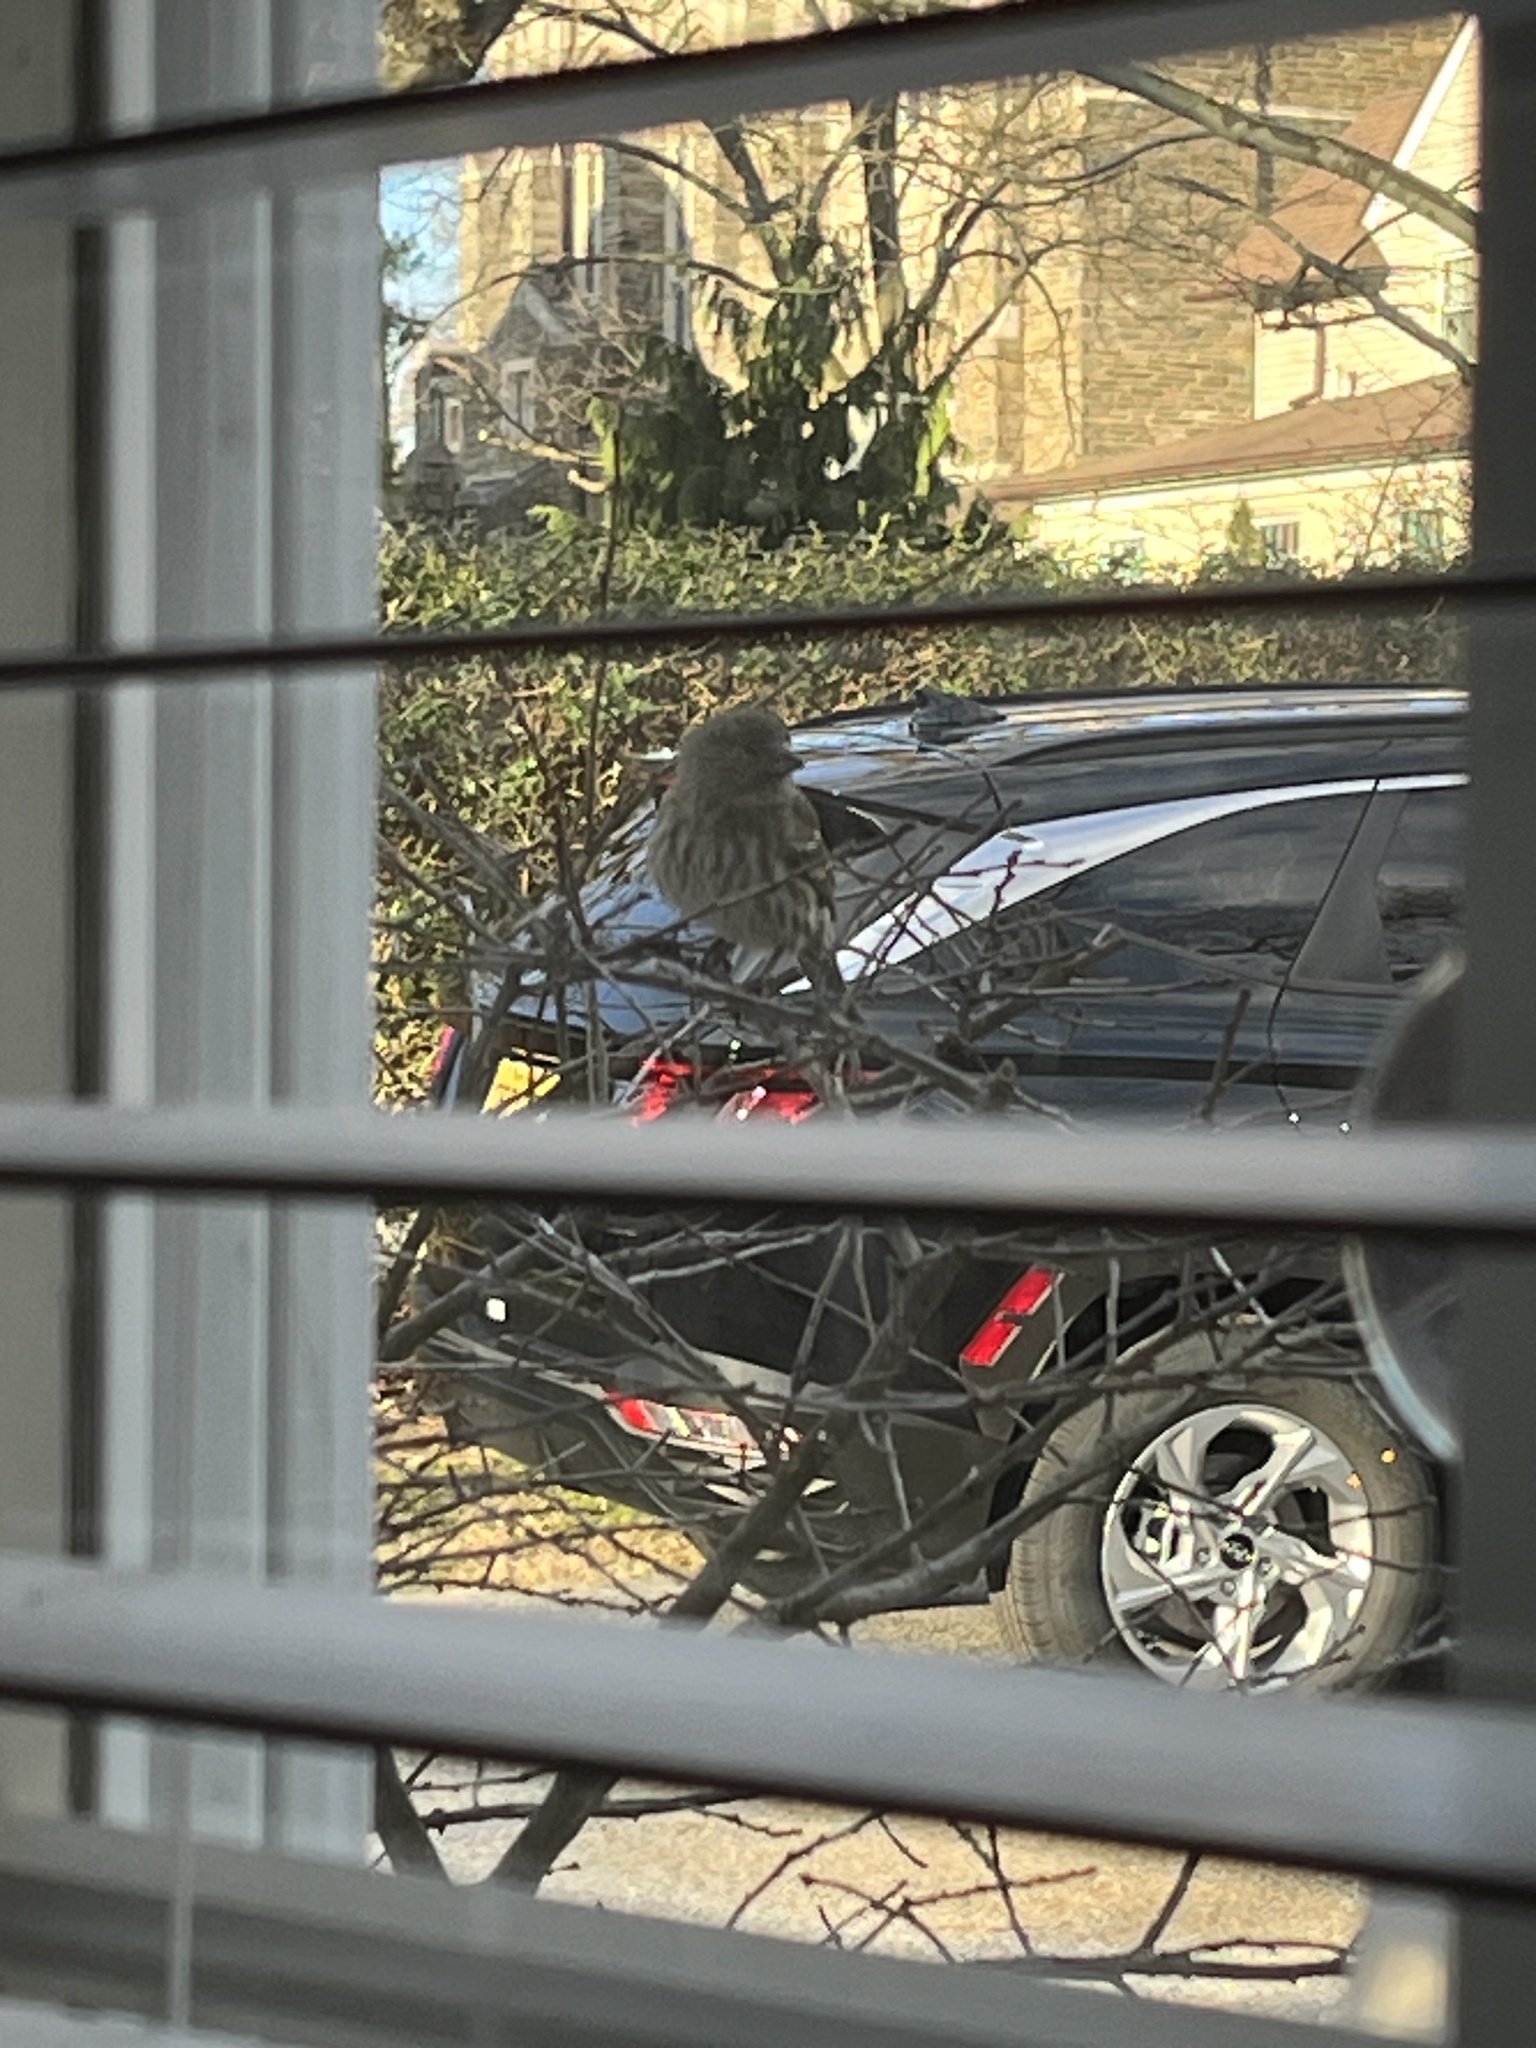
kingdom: Animalia
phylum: Chordata
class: Aves
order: Passeriformes
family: Fringillidae
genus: Haemorhous
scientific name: Haemorhous mexicanus
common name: House finch
